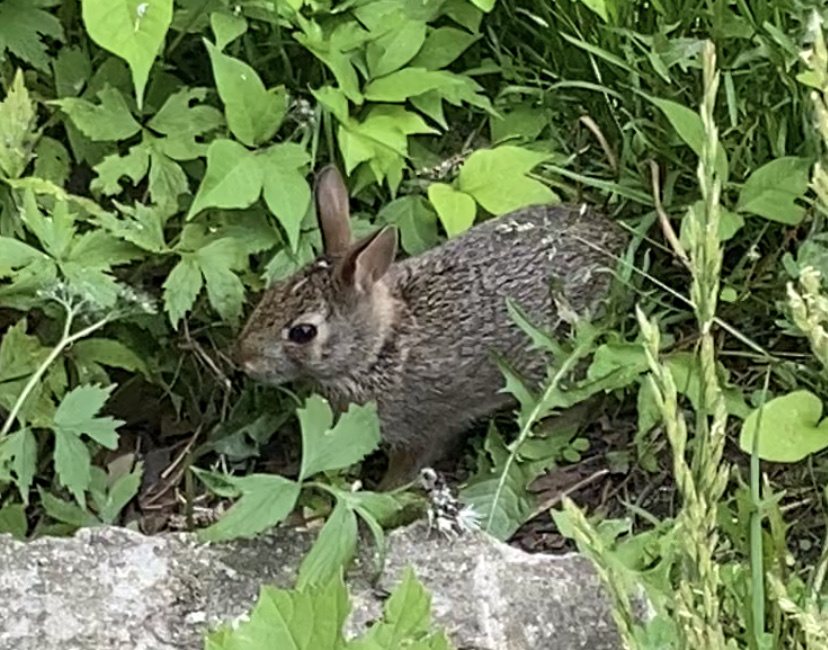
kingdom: Animalia
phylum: Chordata
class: Mammalia
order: Lagomorpha
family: Leporidae
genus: Sylvilagus
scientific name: Sylvilagus floridanus
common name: Eastern cottontail
